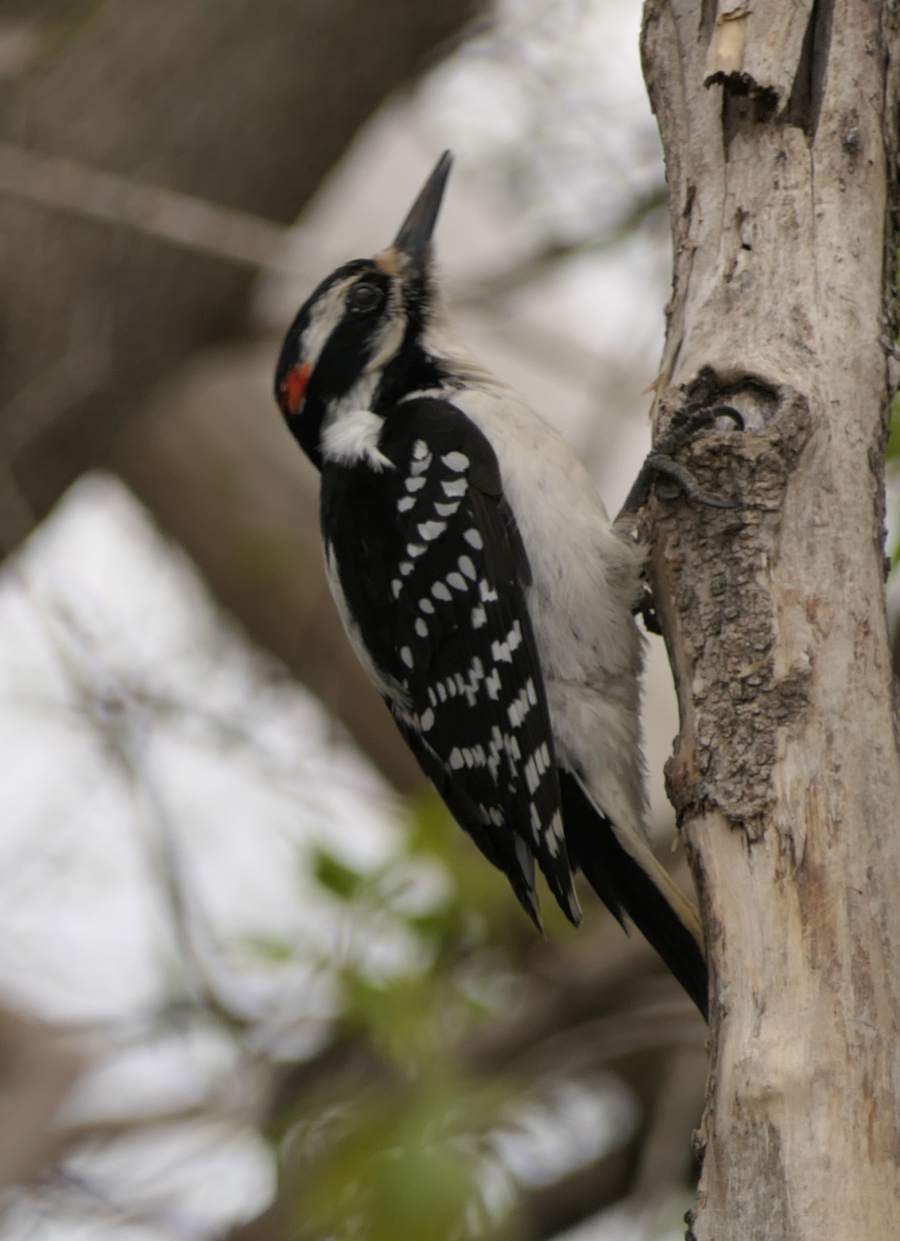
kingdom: Animalia
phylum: Chordata
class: Aves
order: Piciformes
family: Picidae
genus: Leuconotopicus
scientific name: Leuconotopicus villosus
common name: Hairy woodpecker
